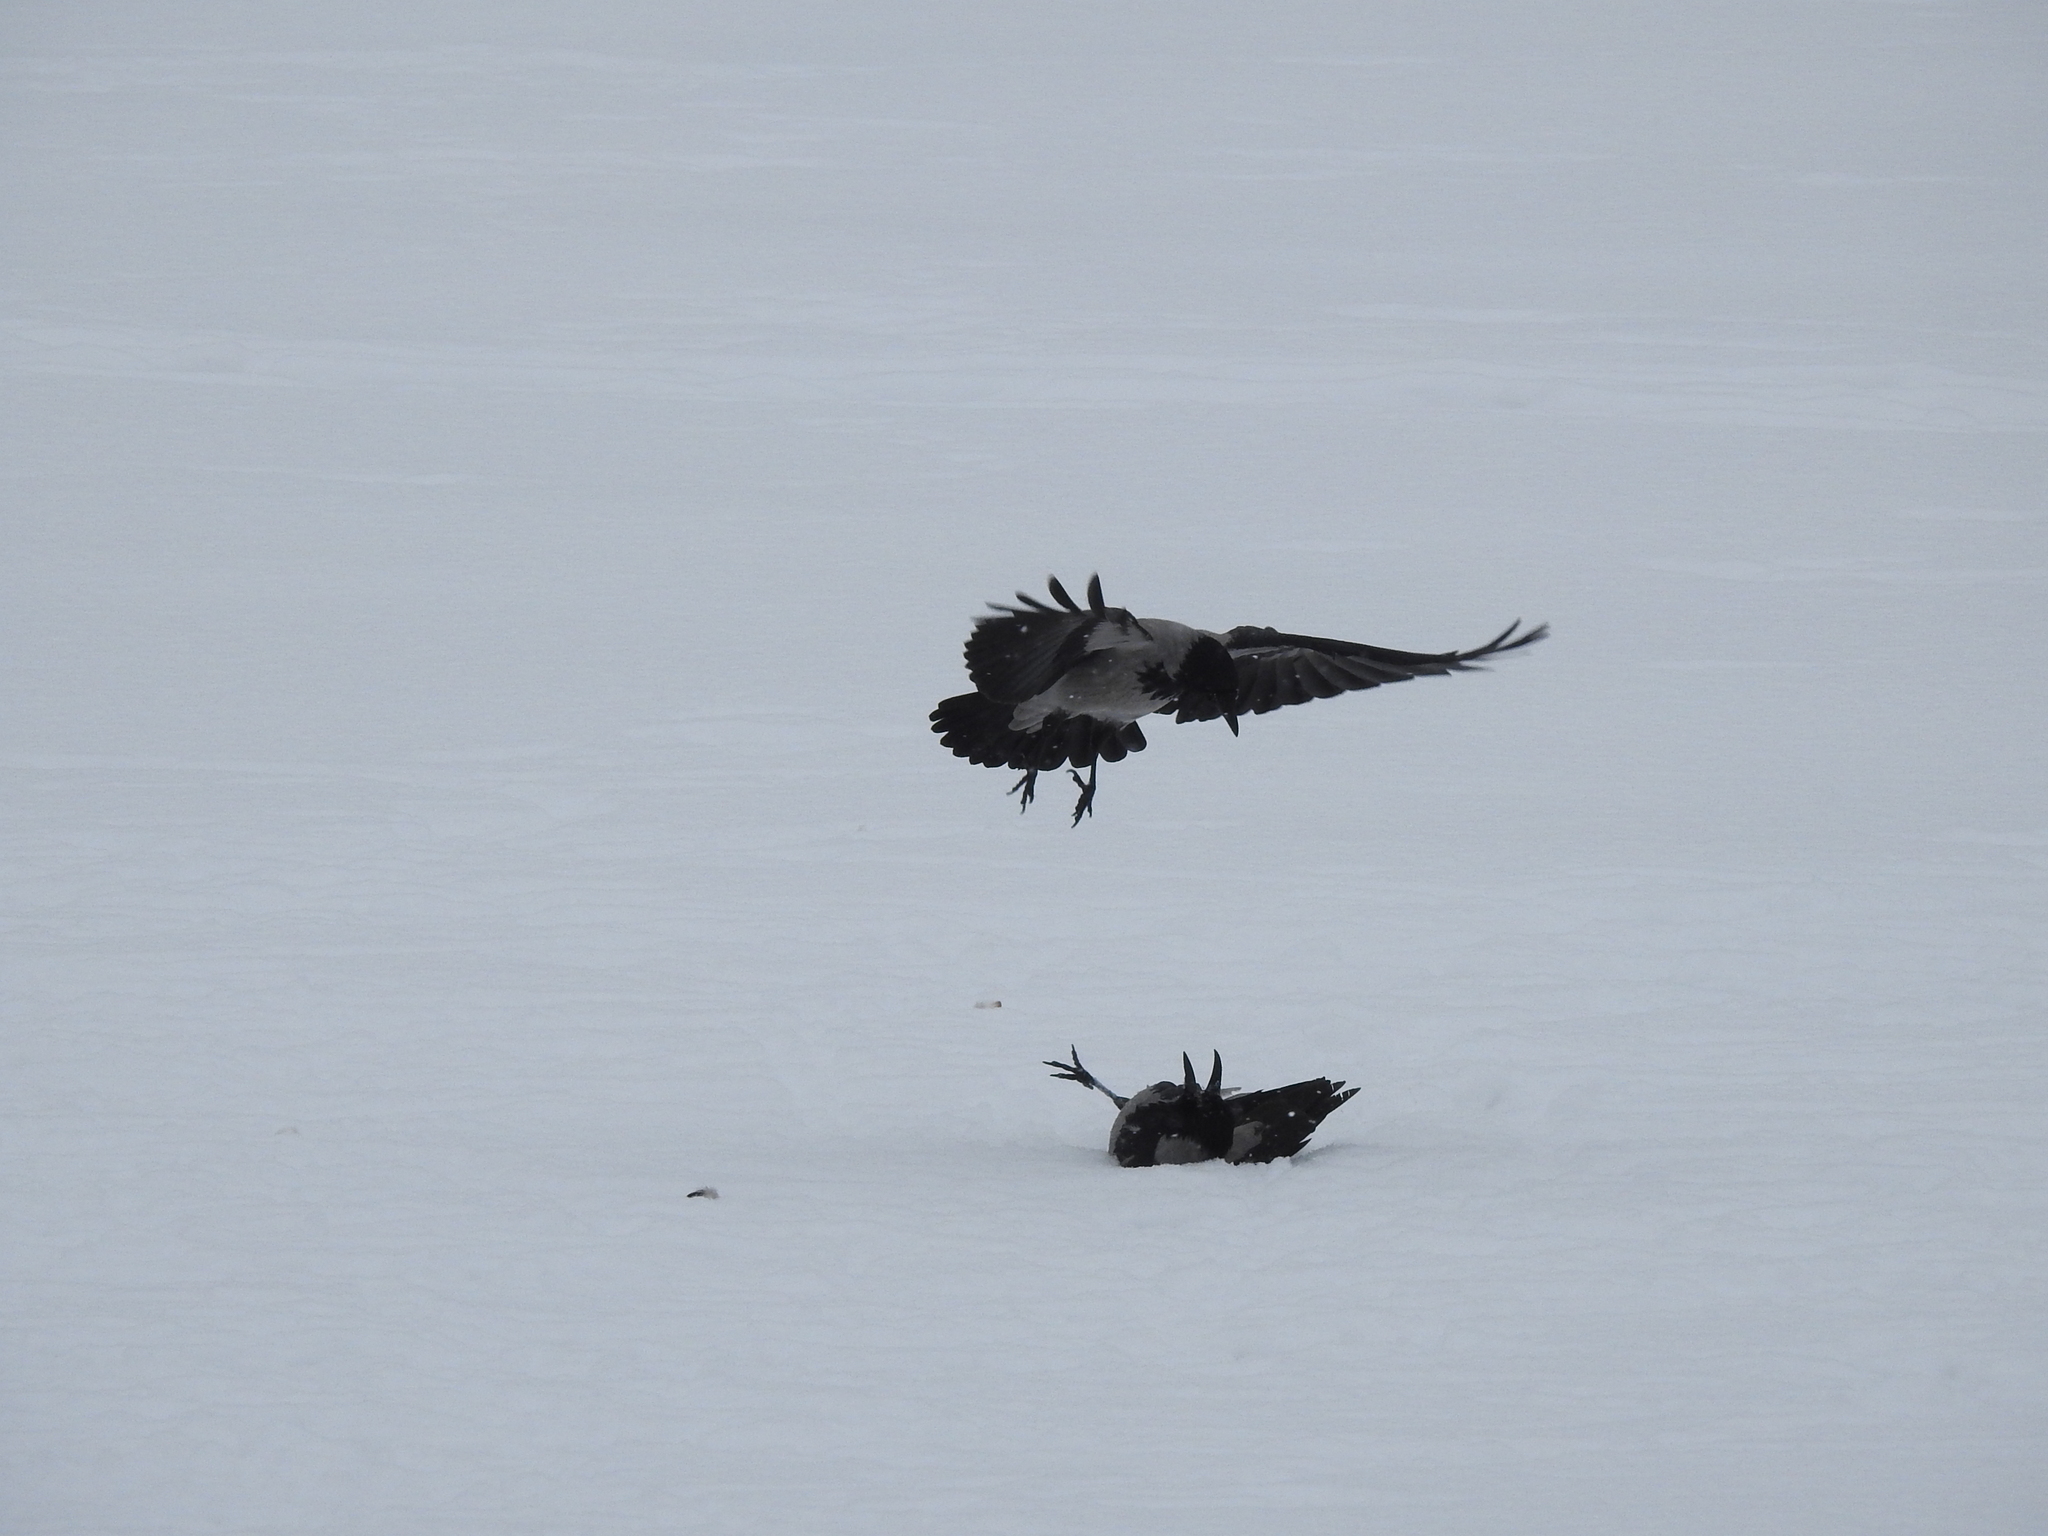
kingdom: Animalia
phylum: Chordata
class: Aves
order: Passeriformes
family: Corvidae
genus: Corvus
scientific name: Corvus cornix
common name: Hooded crow
